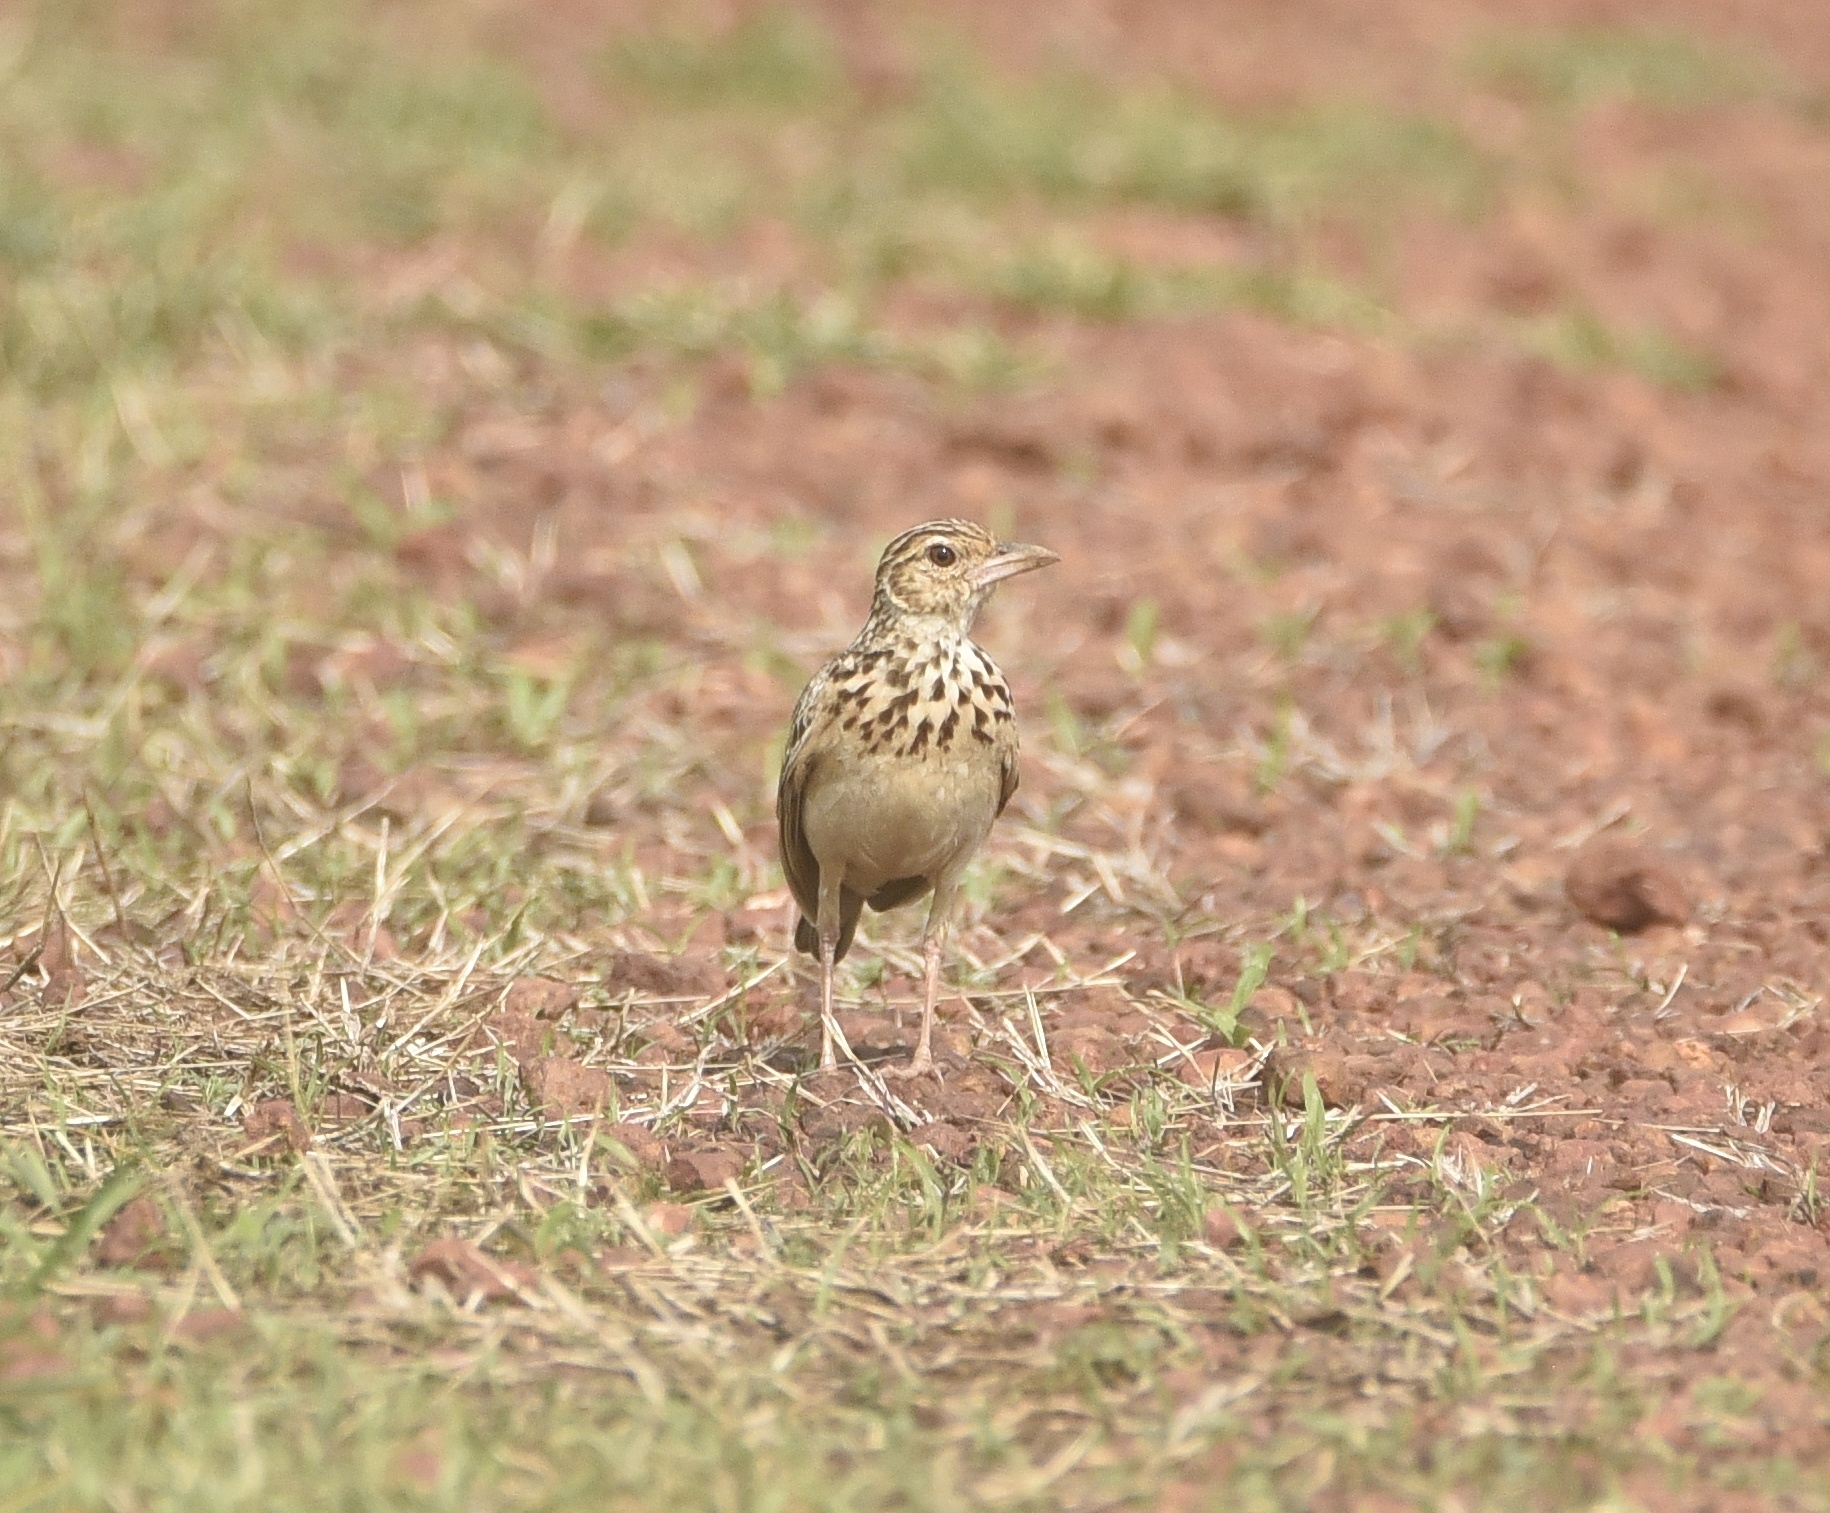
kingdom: Animalia
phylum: Chordata
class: Aves
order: Passeriformes
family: Alaudidae
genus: Mirafra
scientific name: Mirafra affinis
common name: Jerdon's bushlark
